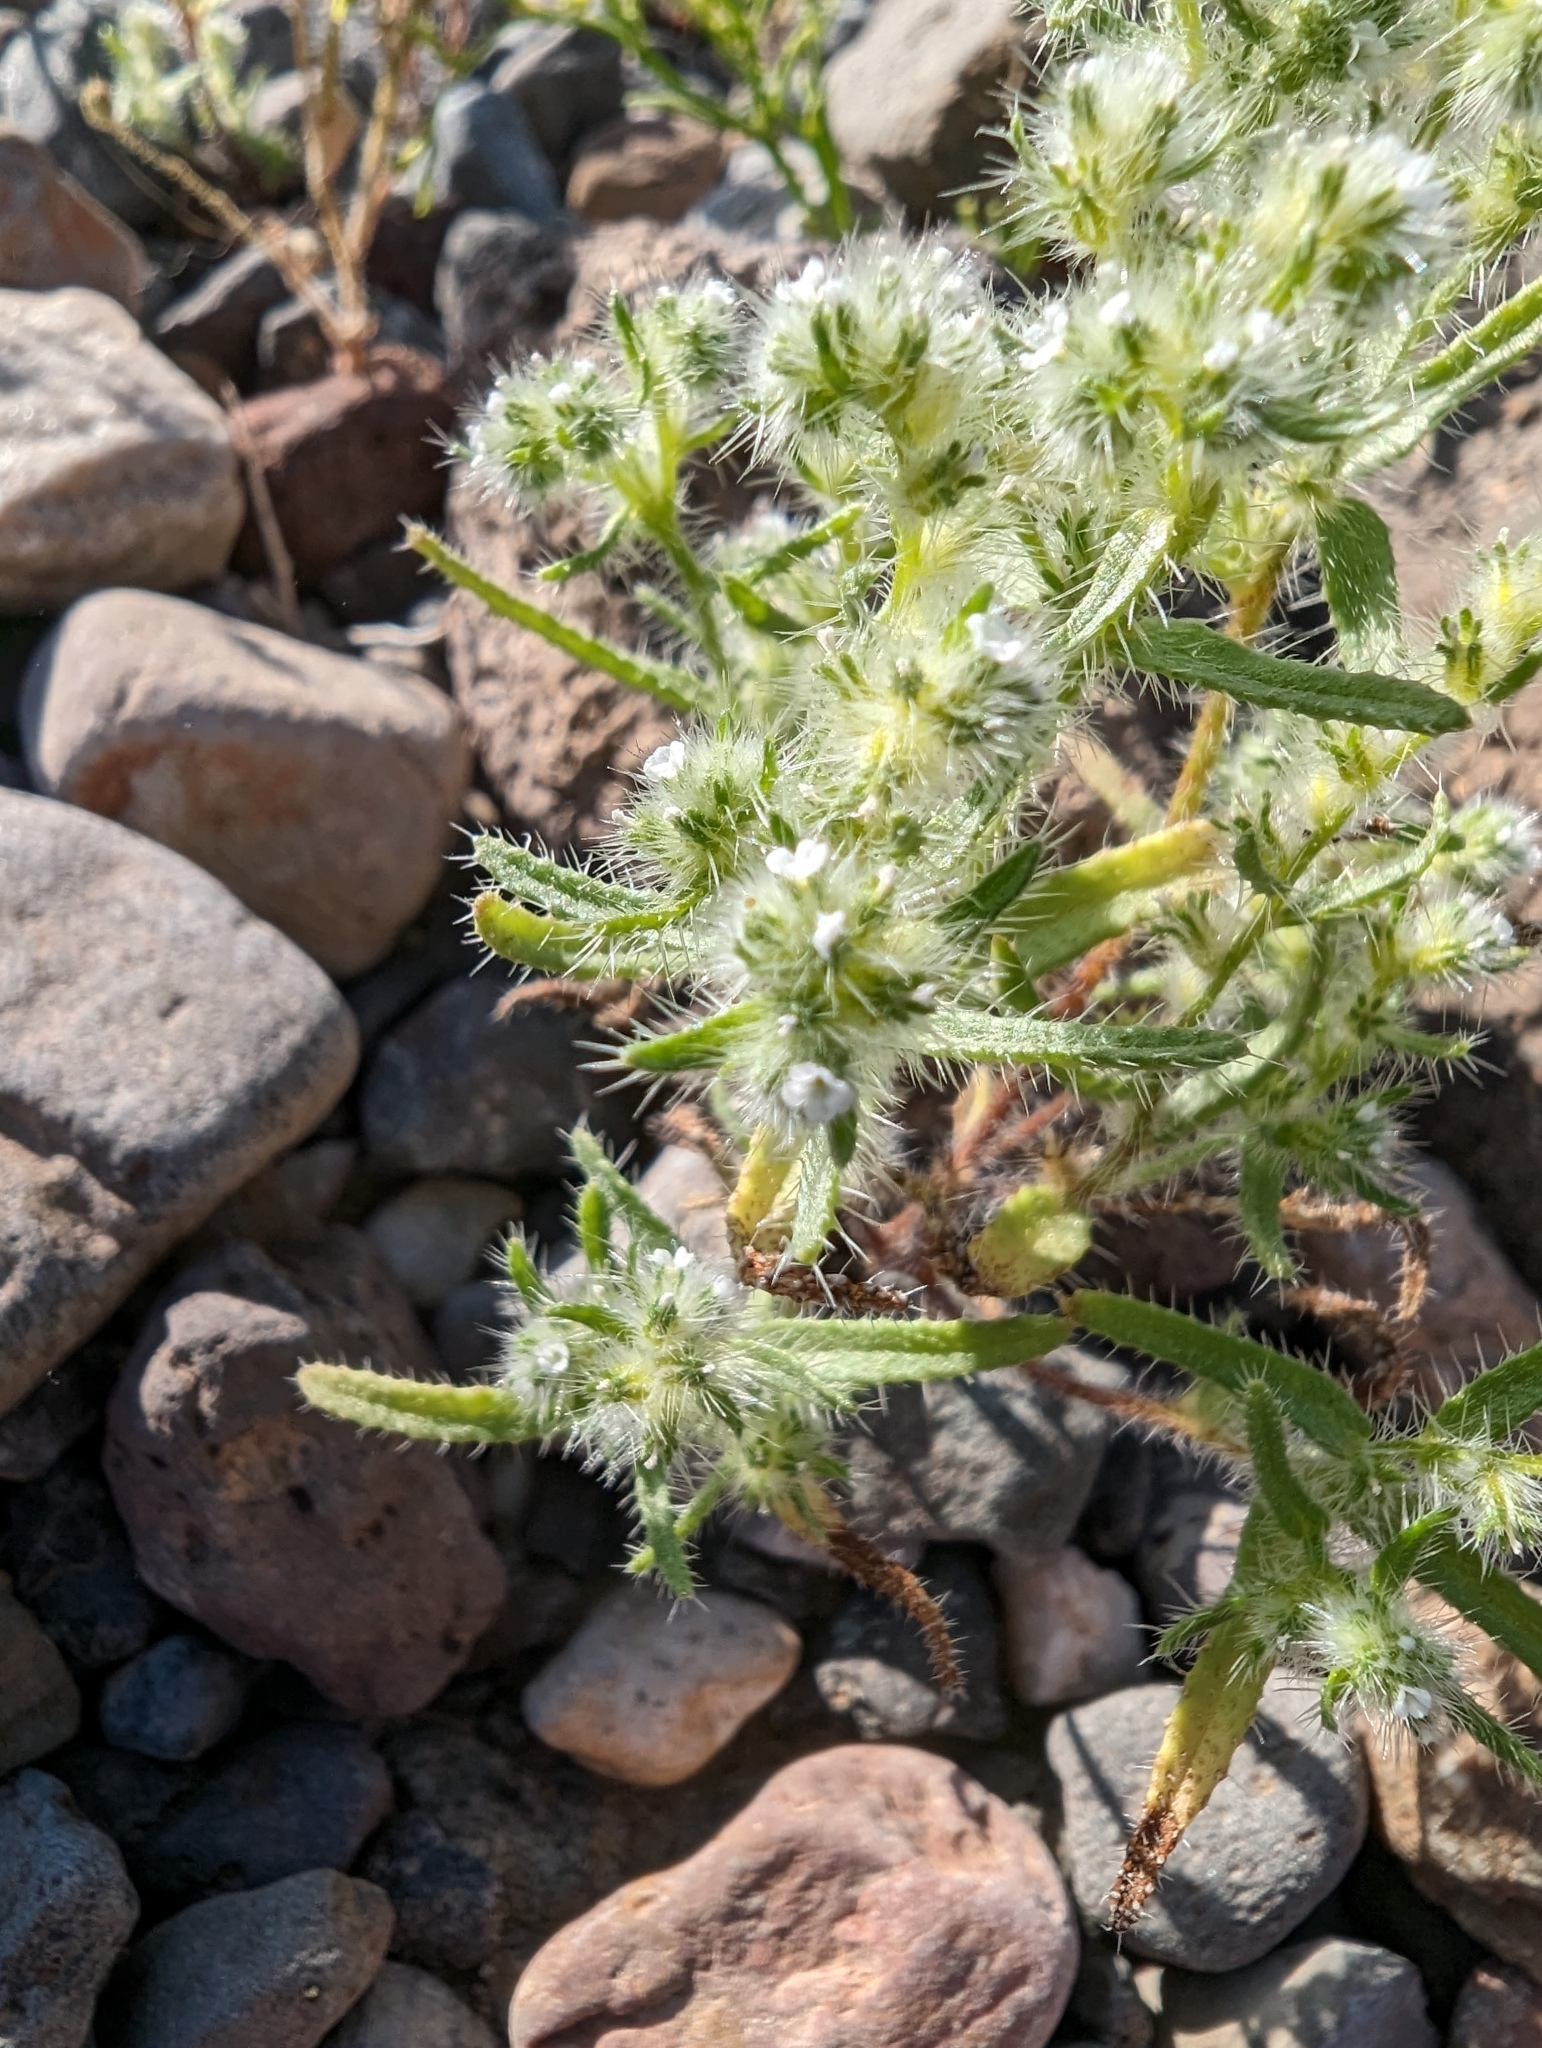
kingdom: Plantae
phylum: Tracheophyta
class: Magnoliopsida
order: Boraginales
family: Boraginaceae
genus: Cryptantha
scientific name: Cryptantha maritima
